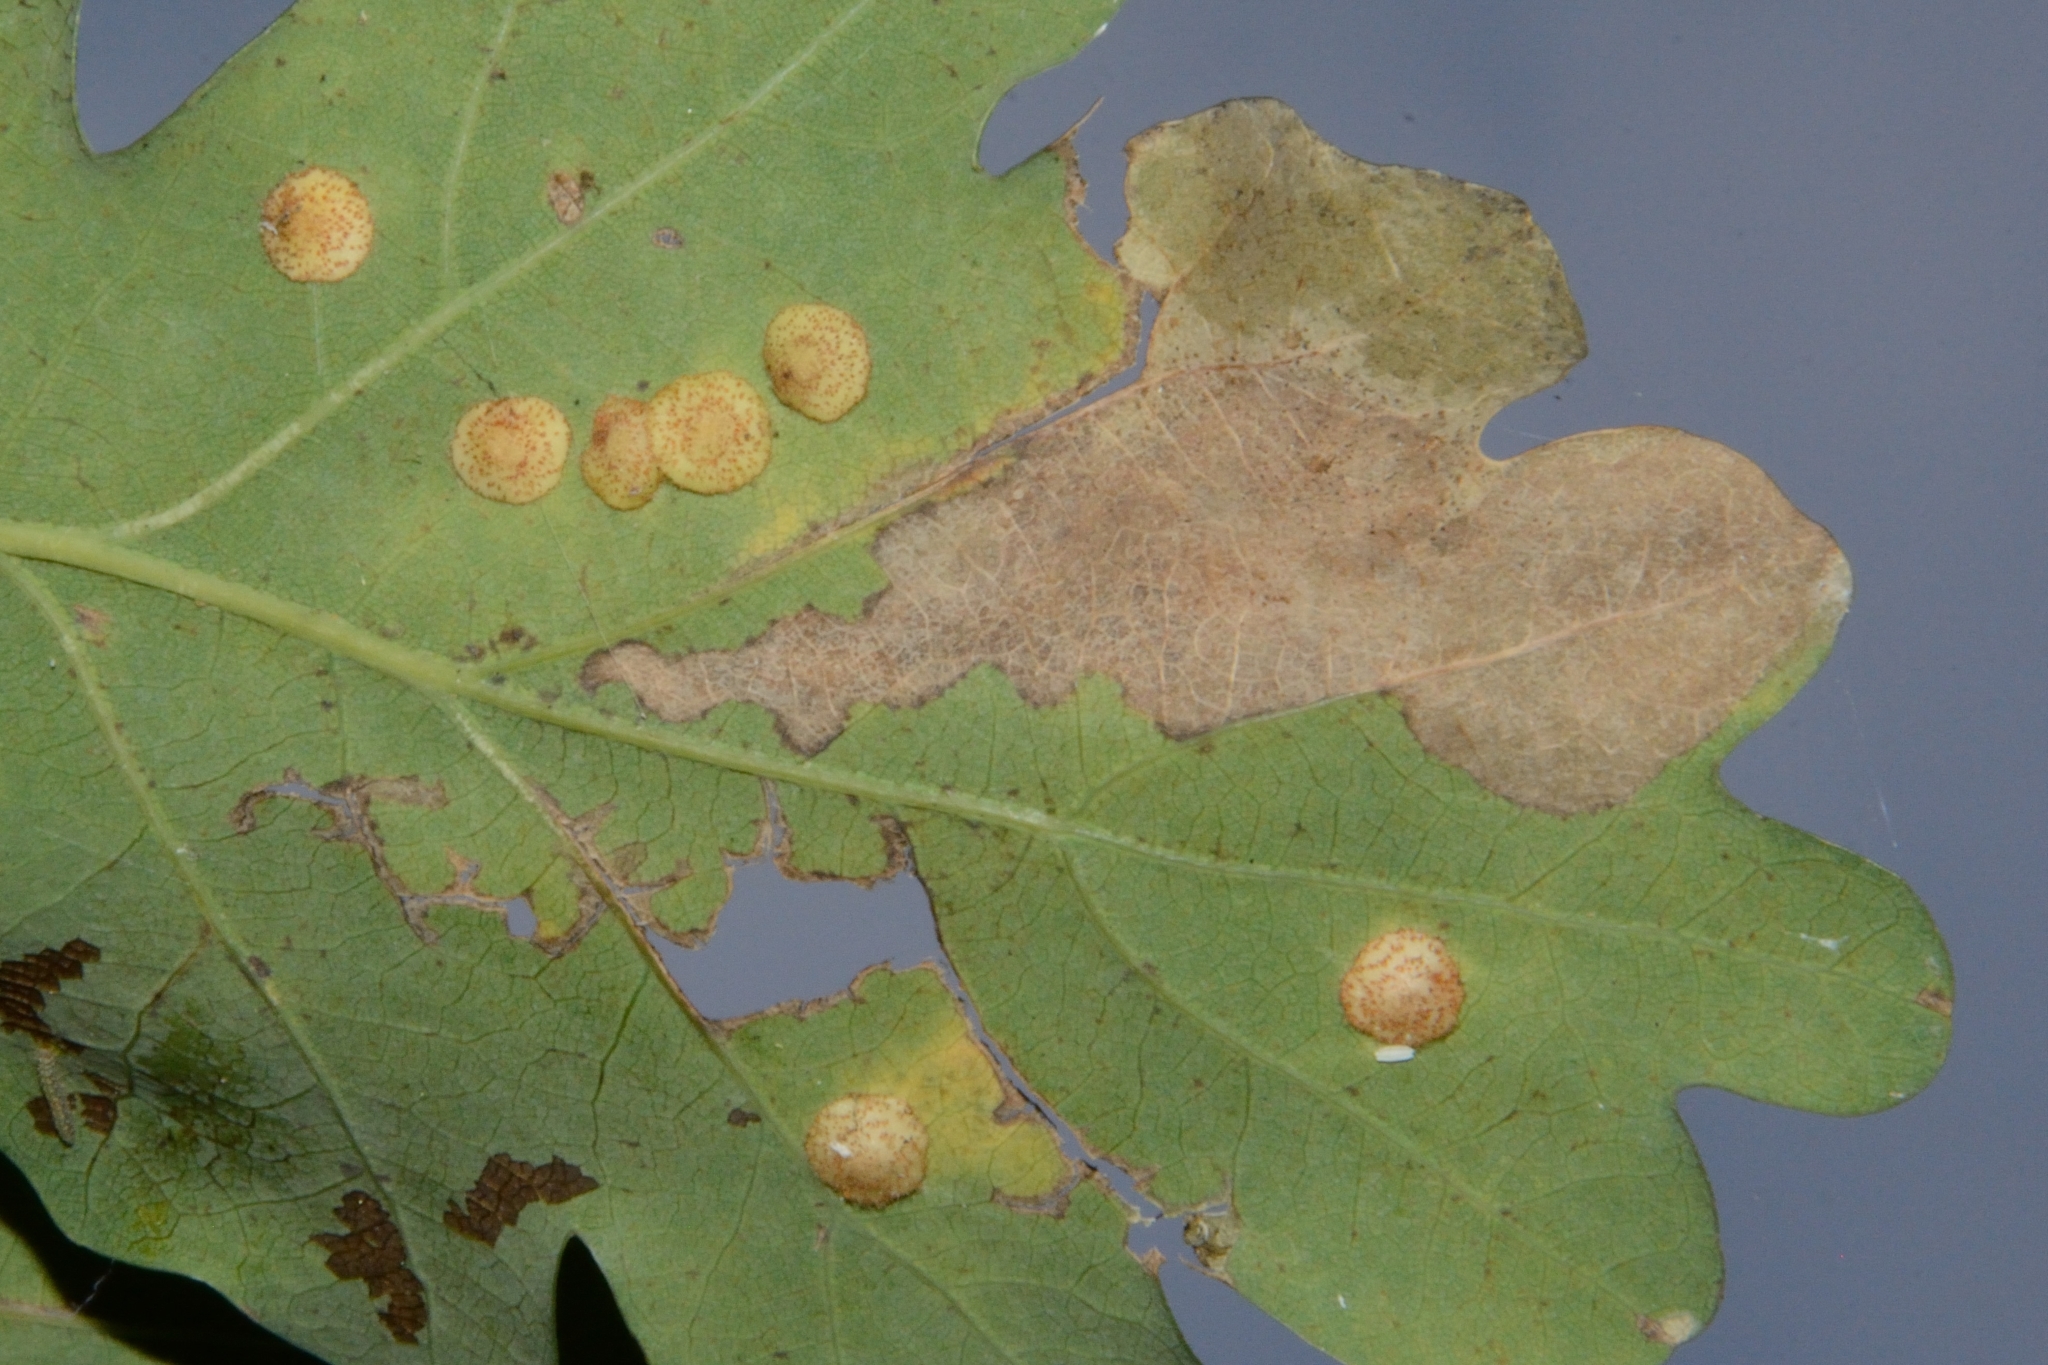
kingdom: Animalia
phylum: Arthropoda
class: Insecta
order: Hymenoptera
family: Cynipidae
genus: Neuroterus
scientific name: Neuroterus quercusbaccarum
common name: Common spangle gall
